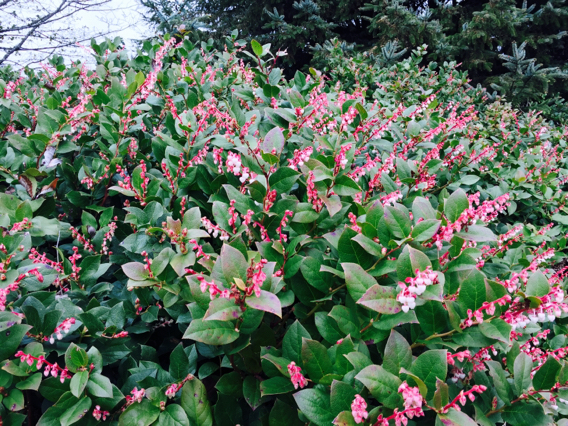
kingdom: Plantae
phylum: Tracheophyta
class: Magnoliopsida
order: Ericales
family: Ericaceae
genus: Gaultheria
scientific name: Gaultheria shallon
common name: Shallon
